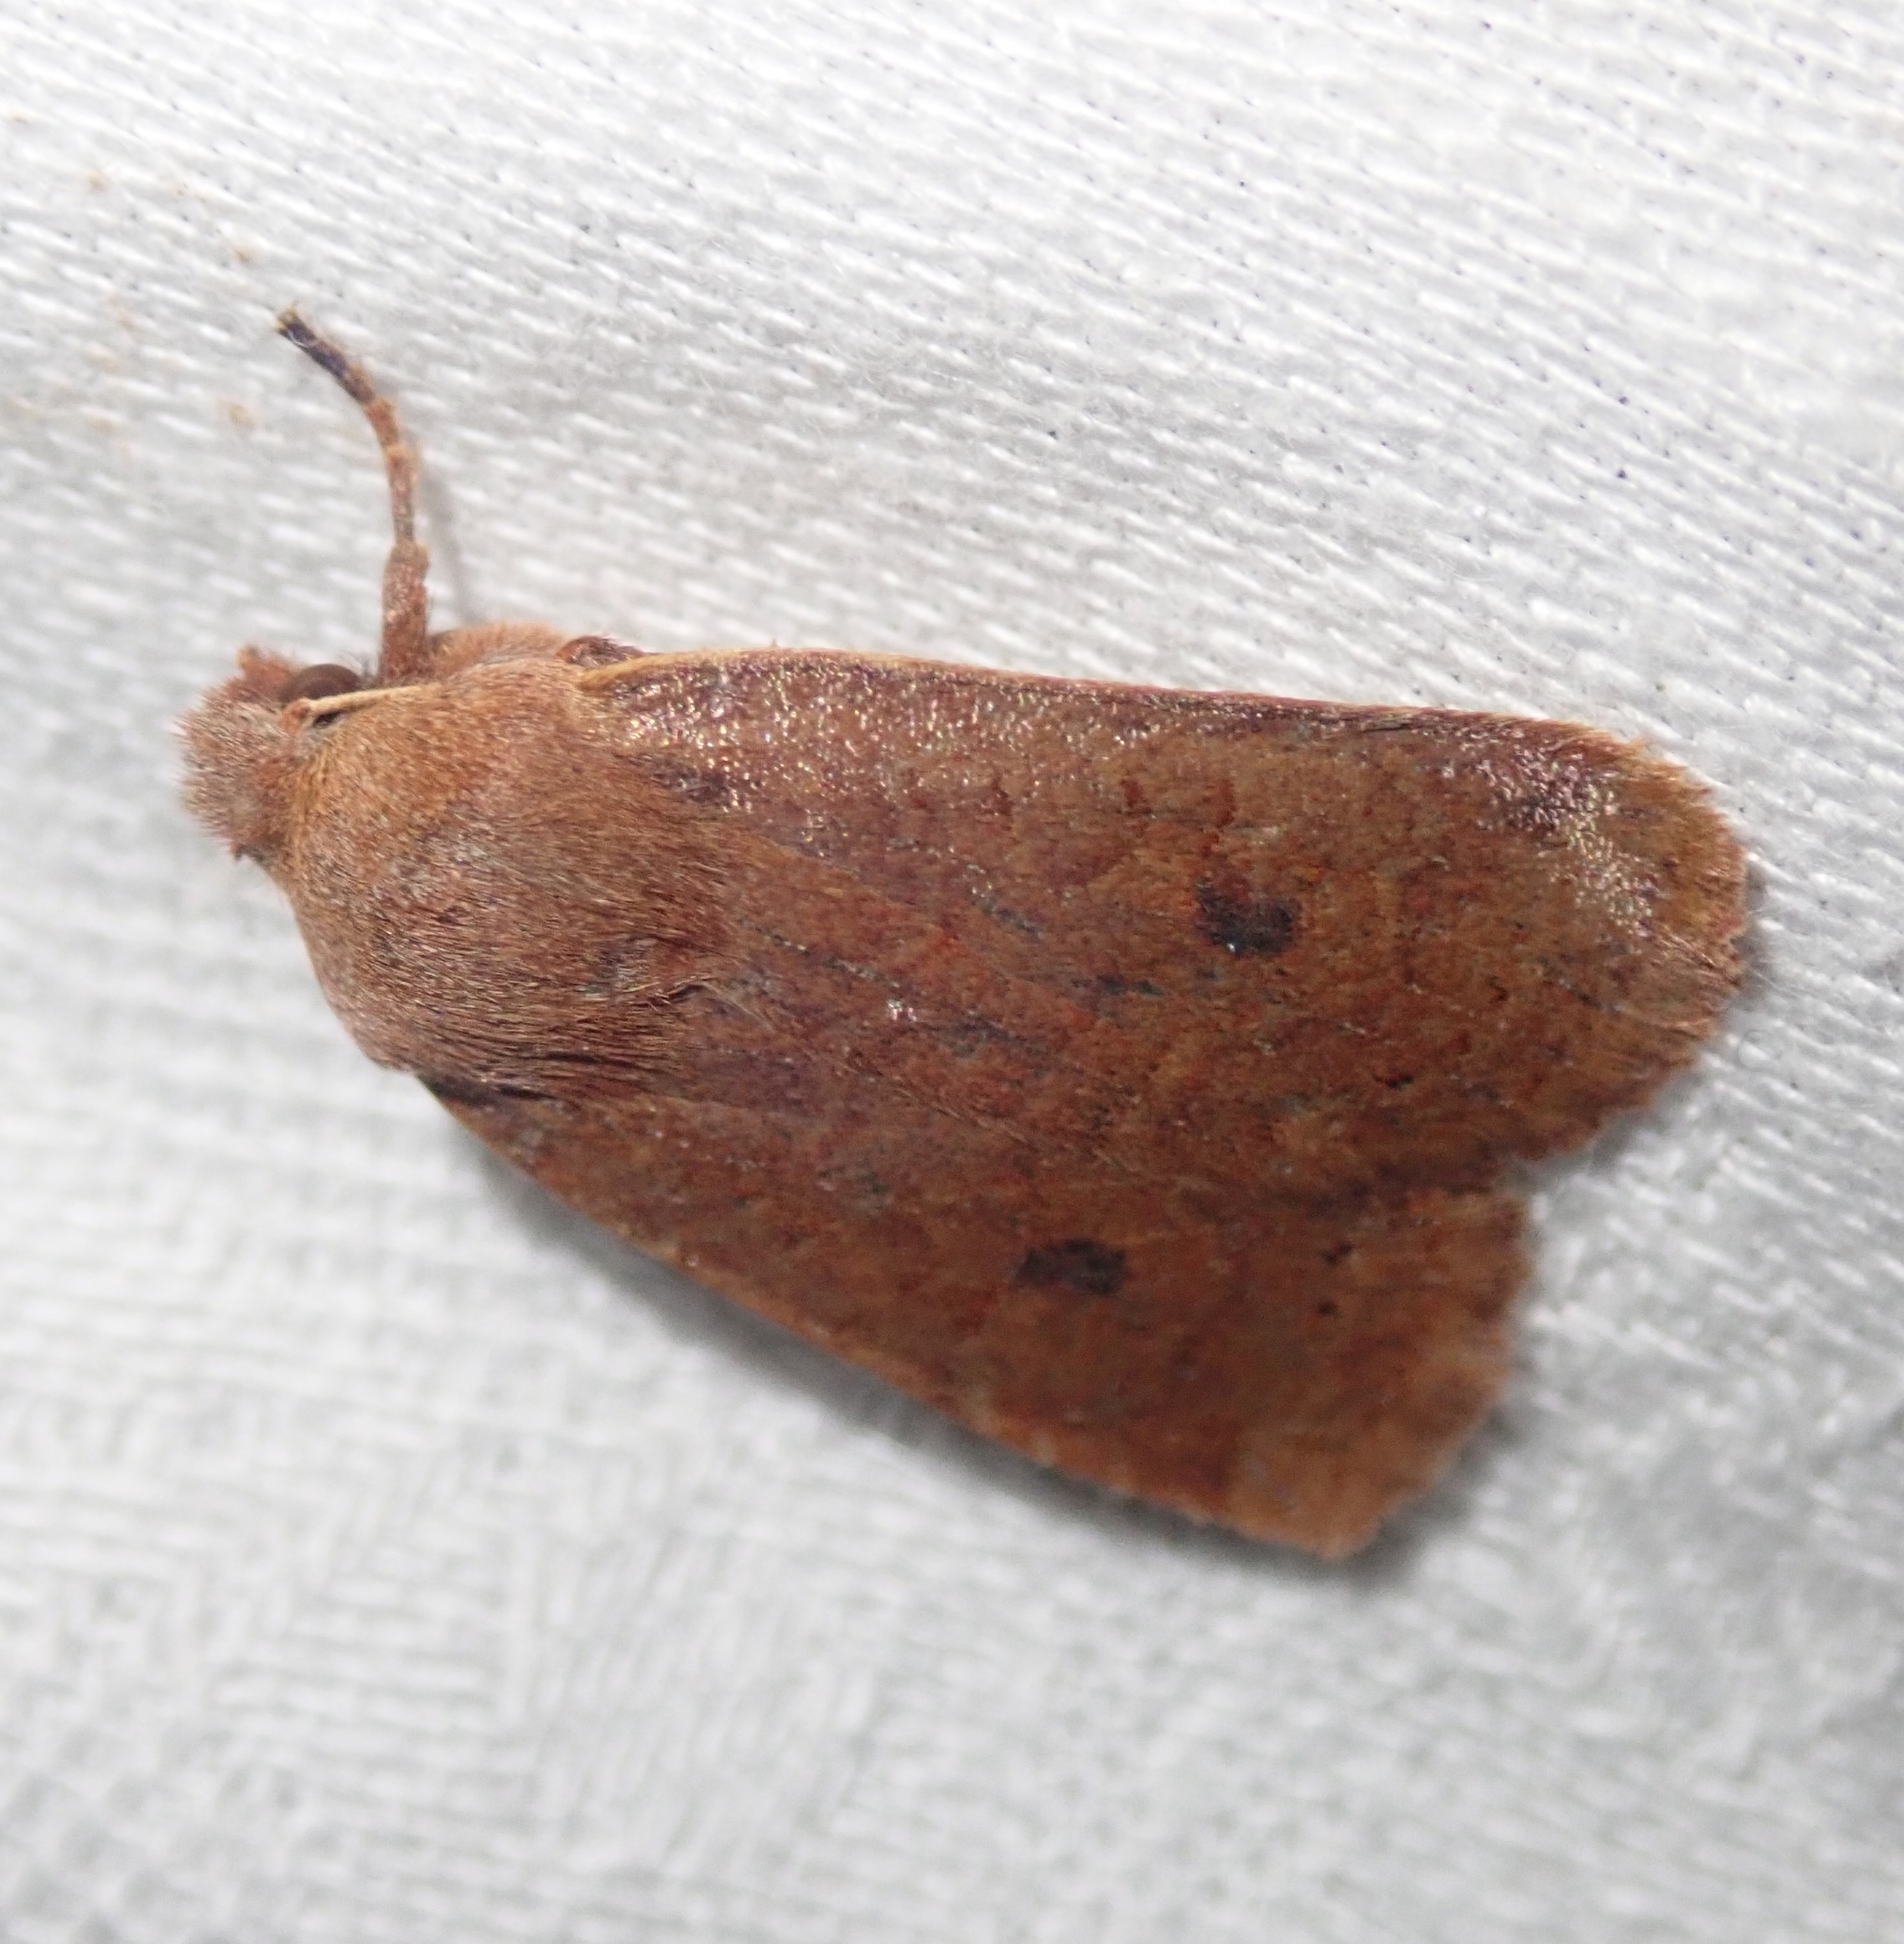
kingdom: Animalia
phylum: Arthropoda
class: Insecta
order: Lepidoptera
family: Noctuidae
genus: Conistra
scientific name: Conistra vaccinii
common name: Chestnut
